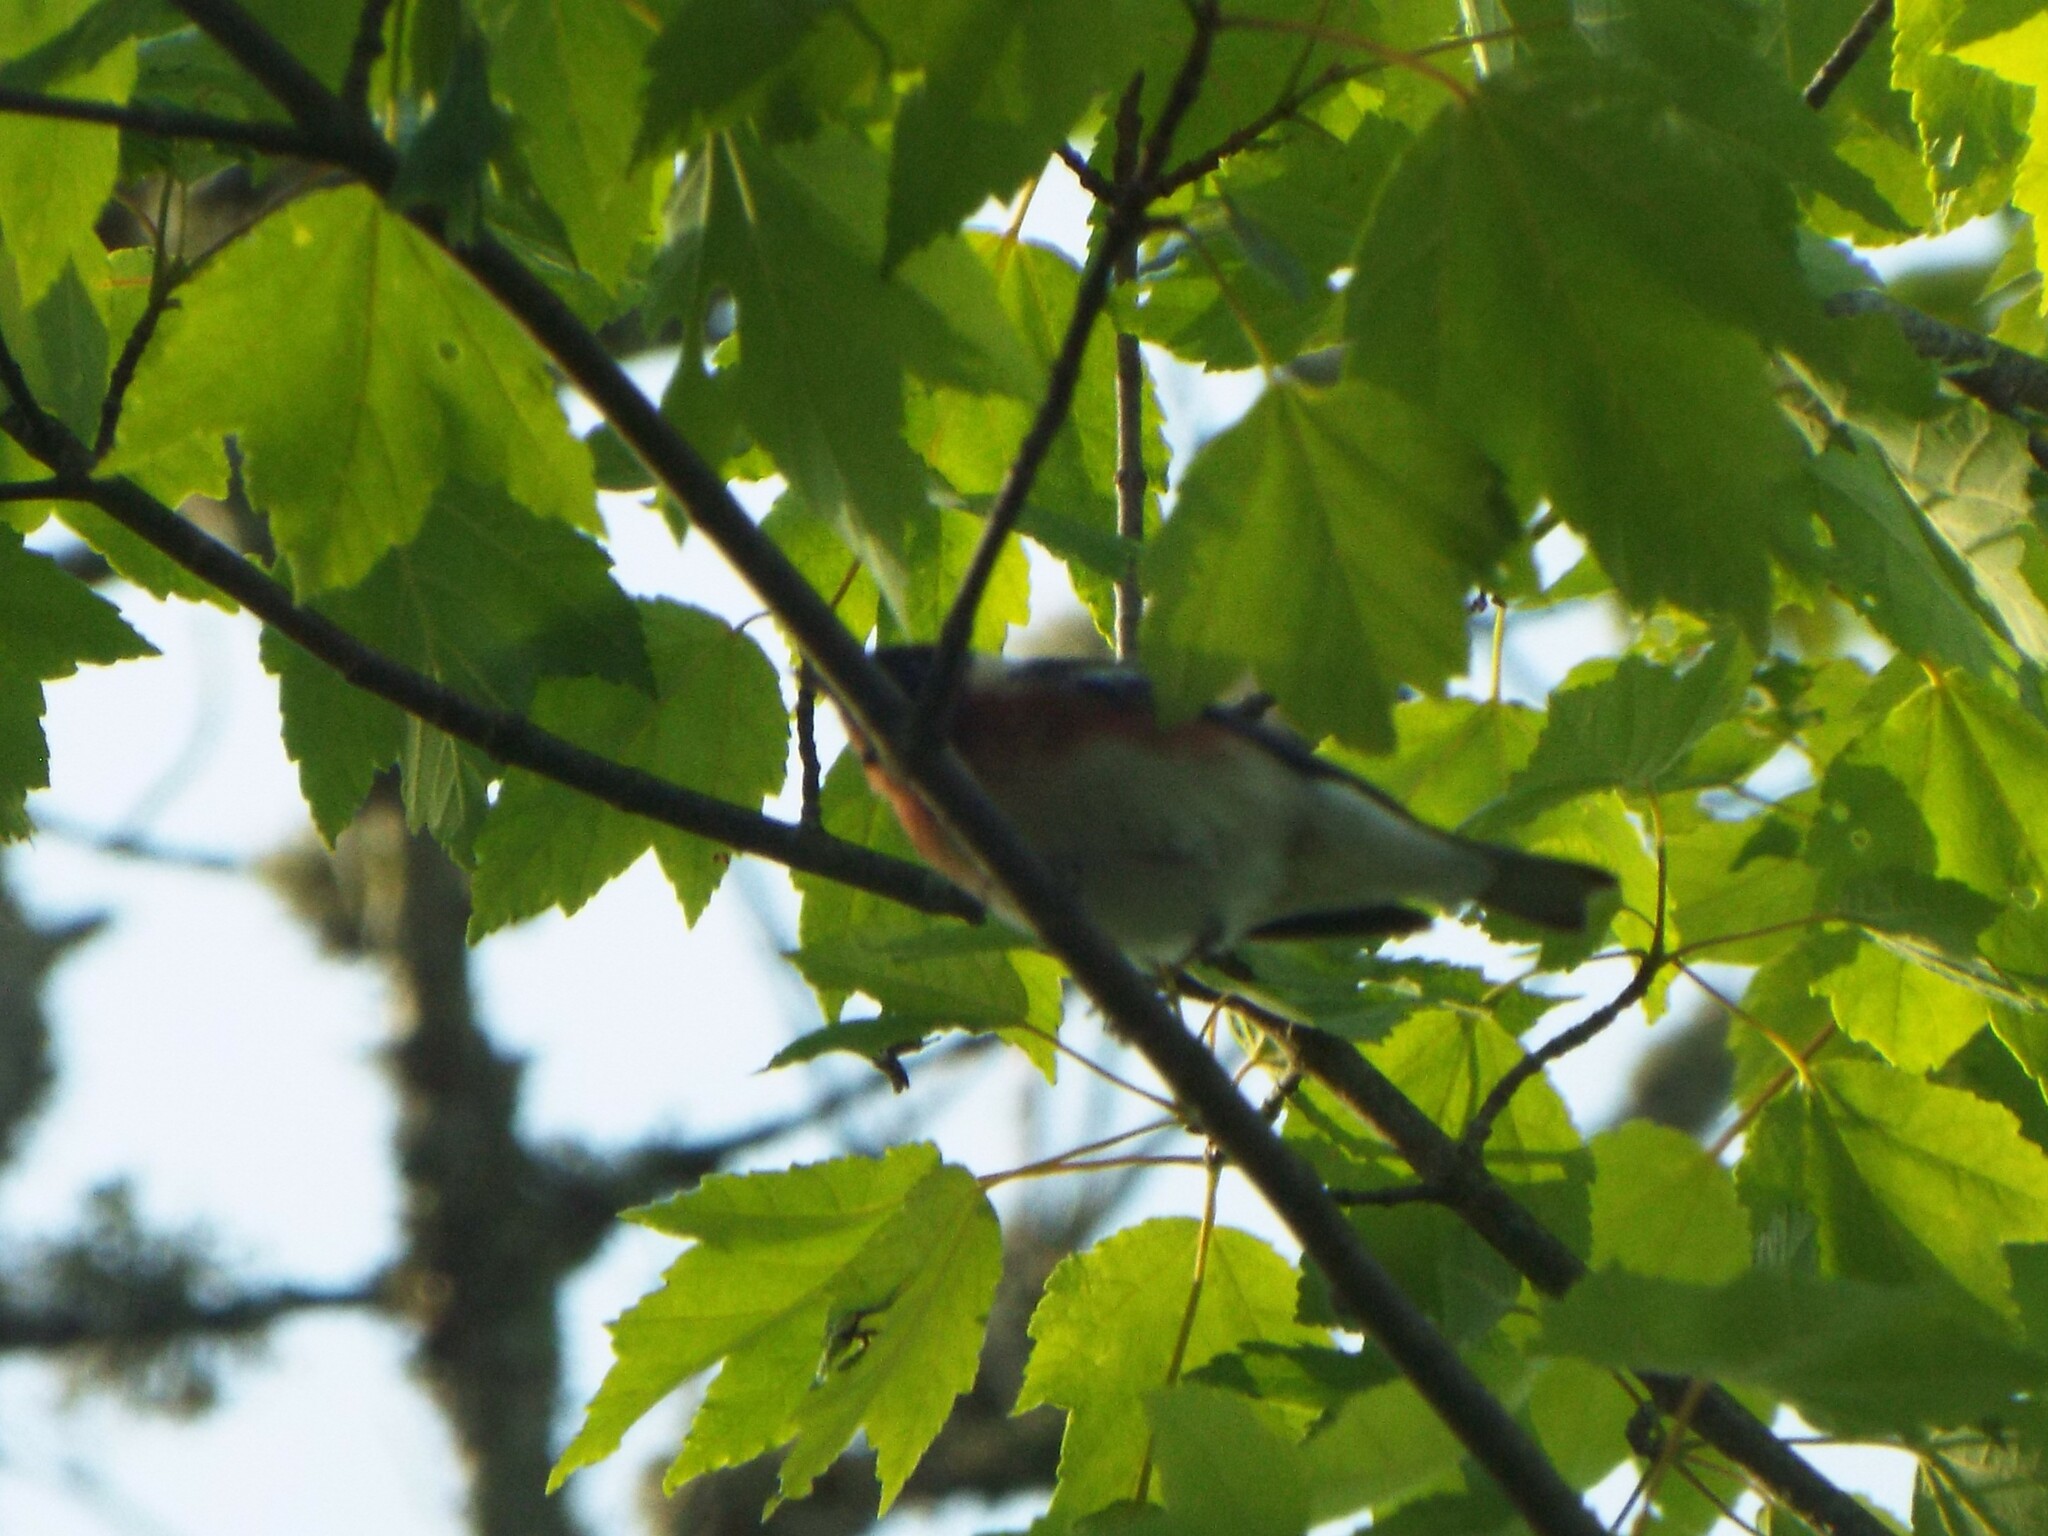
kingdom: Animalia
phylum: Chordata
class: Aves
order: Passeriformes
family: Parulidae
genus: Setophaga
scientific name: Setophaga castanea
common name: Bay-breasted warbler
